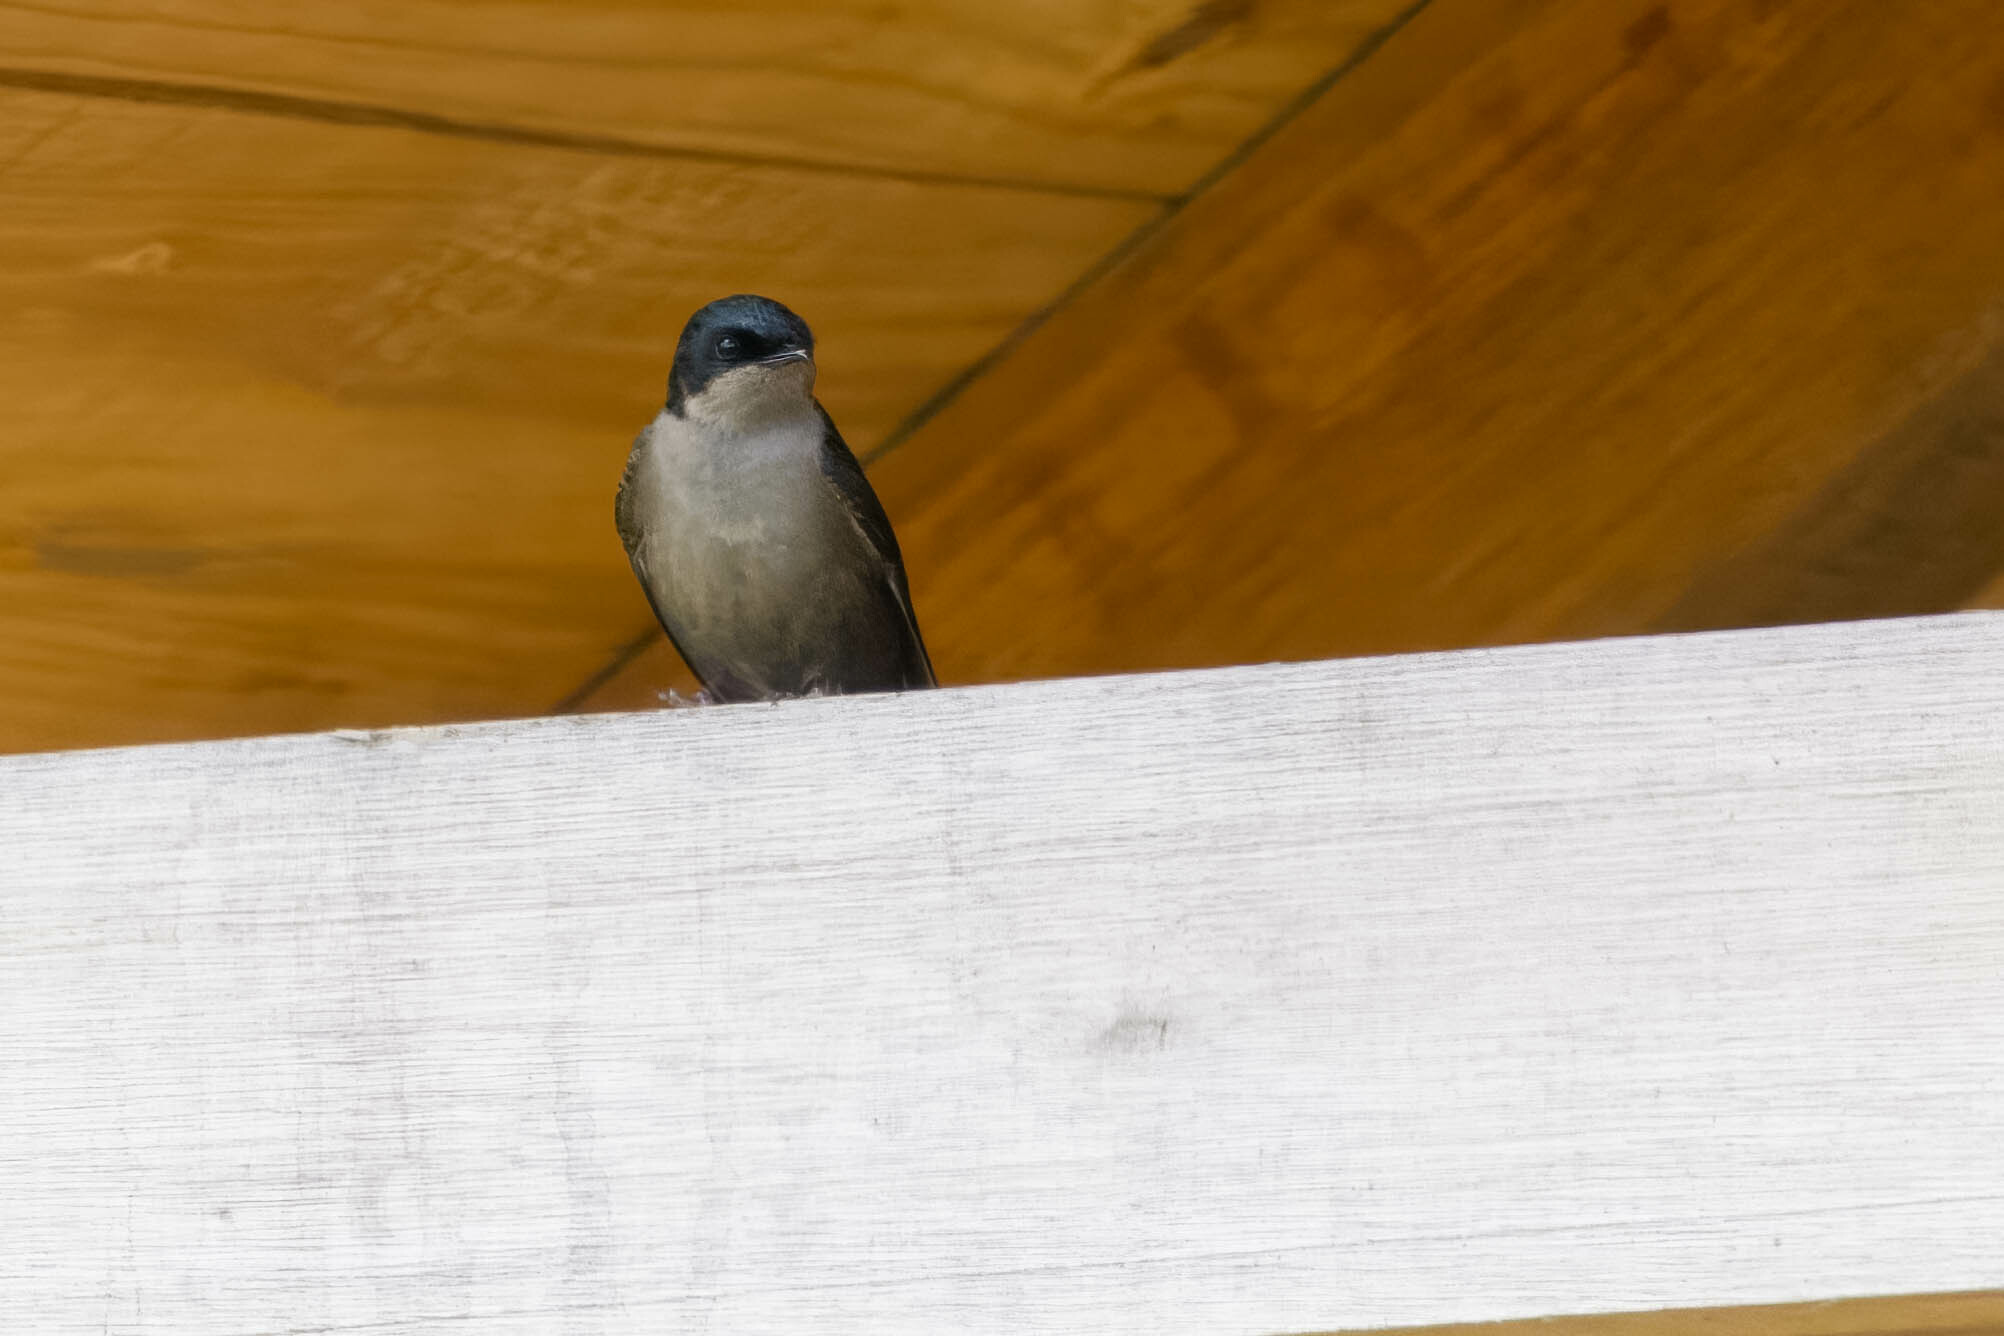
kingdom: Animalia
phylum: Chordata
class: Aves
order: Passeriformes
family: Hirundinidae
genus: Notiochelidon
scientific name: Notiochelidon murina
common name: Brown-bellied swallow
